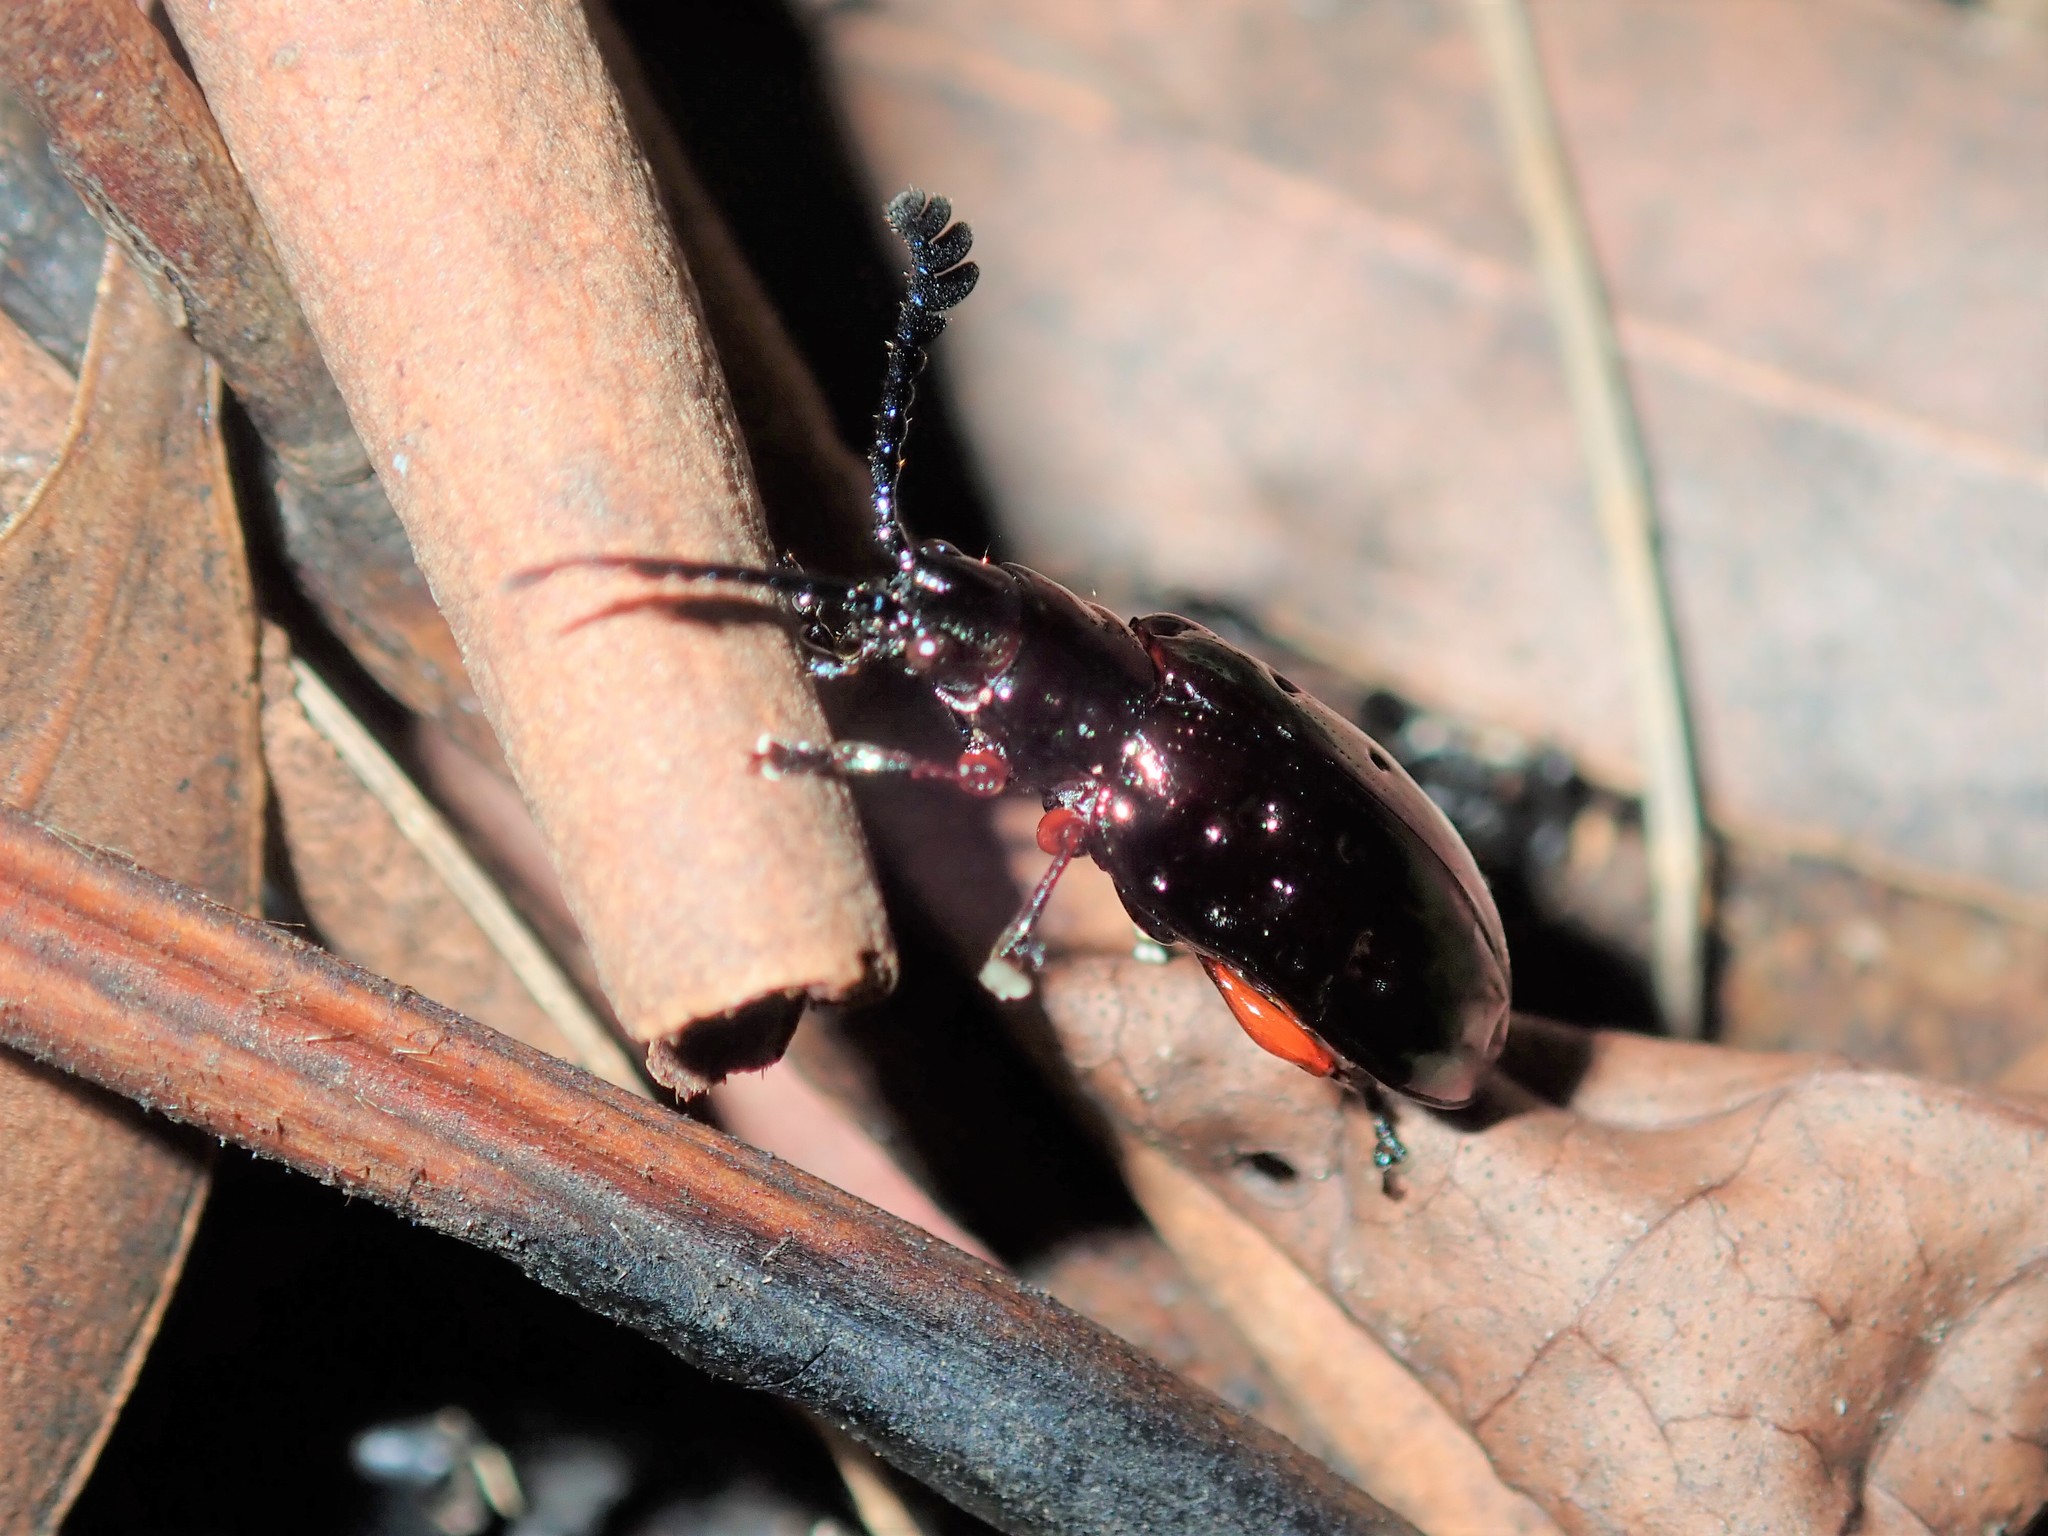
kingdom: Animalia
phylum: Arthropoda
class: Insecta
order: Coleoptera
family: Chrysomelidae
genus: Johannica
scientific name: Johannica gemellata
